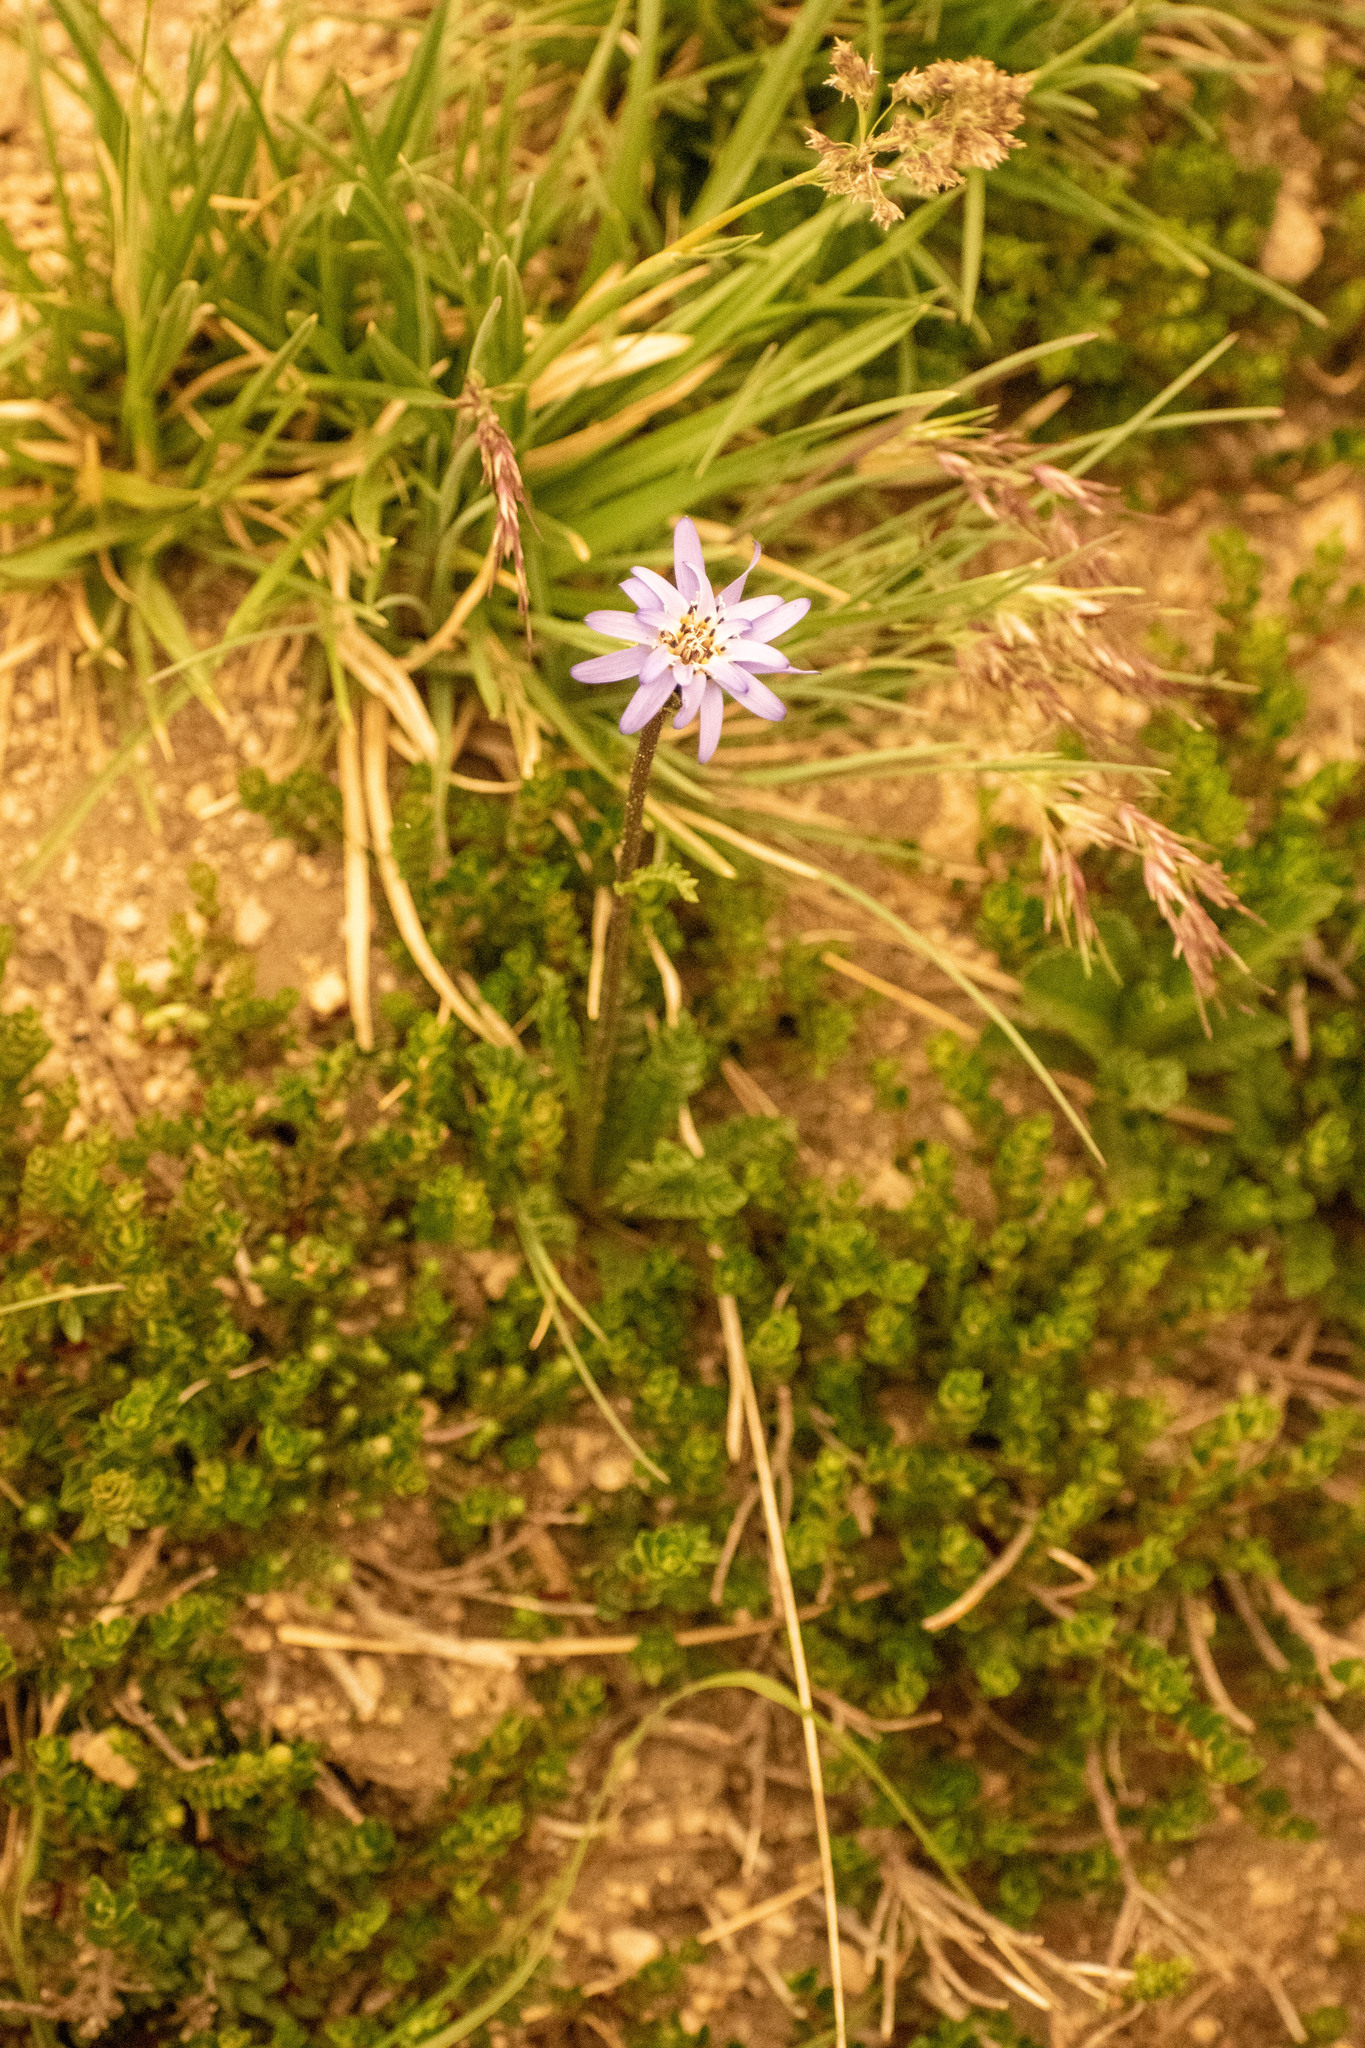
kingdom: Plantae
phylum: Tracheophyta
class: Magnoliopsida
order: Asterales
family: Asteraceae
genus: Perezia
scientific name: Perezia pedicularidifolia
